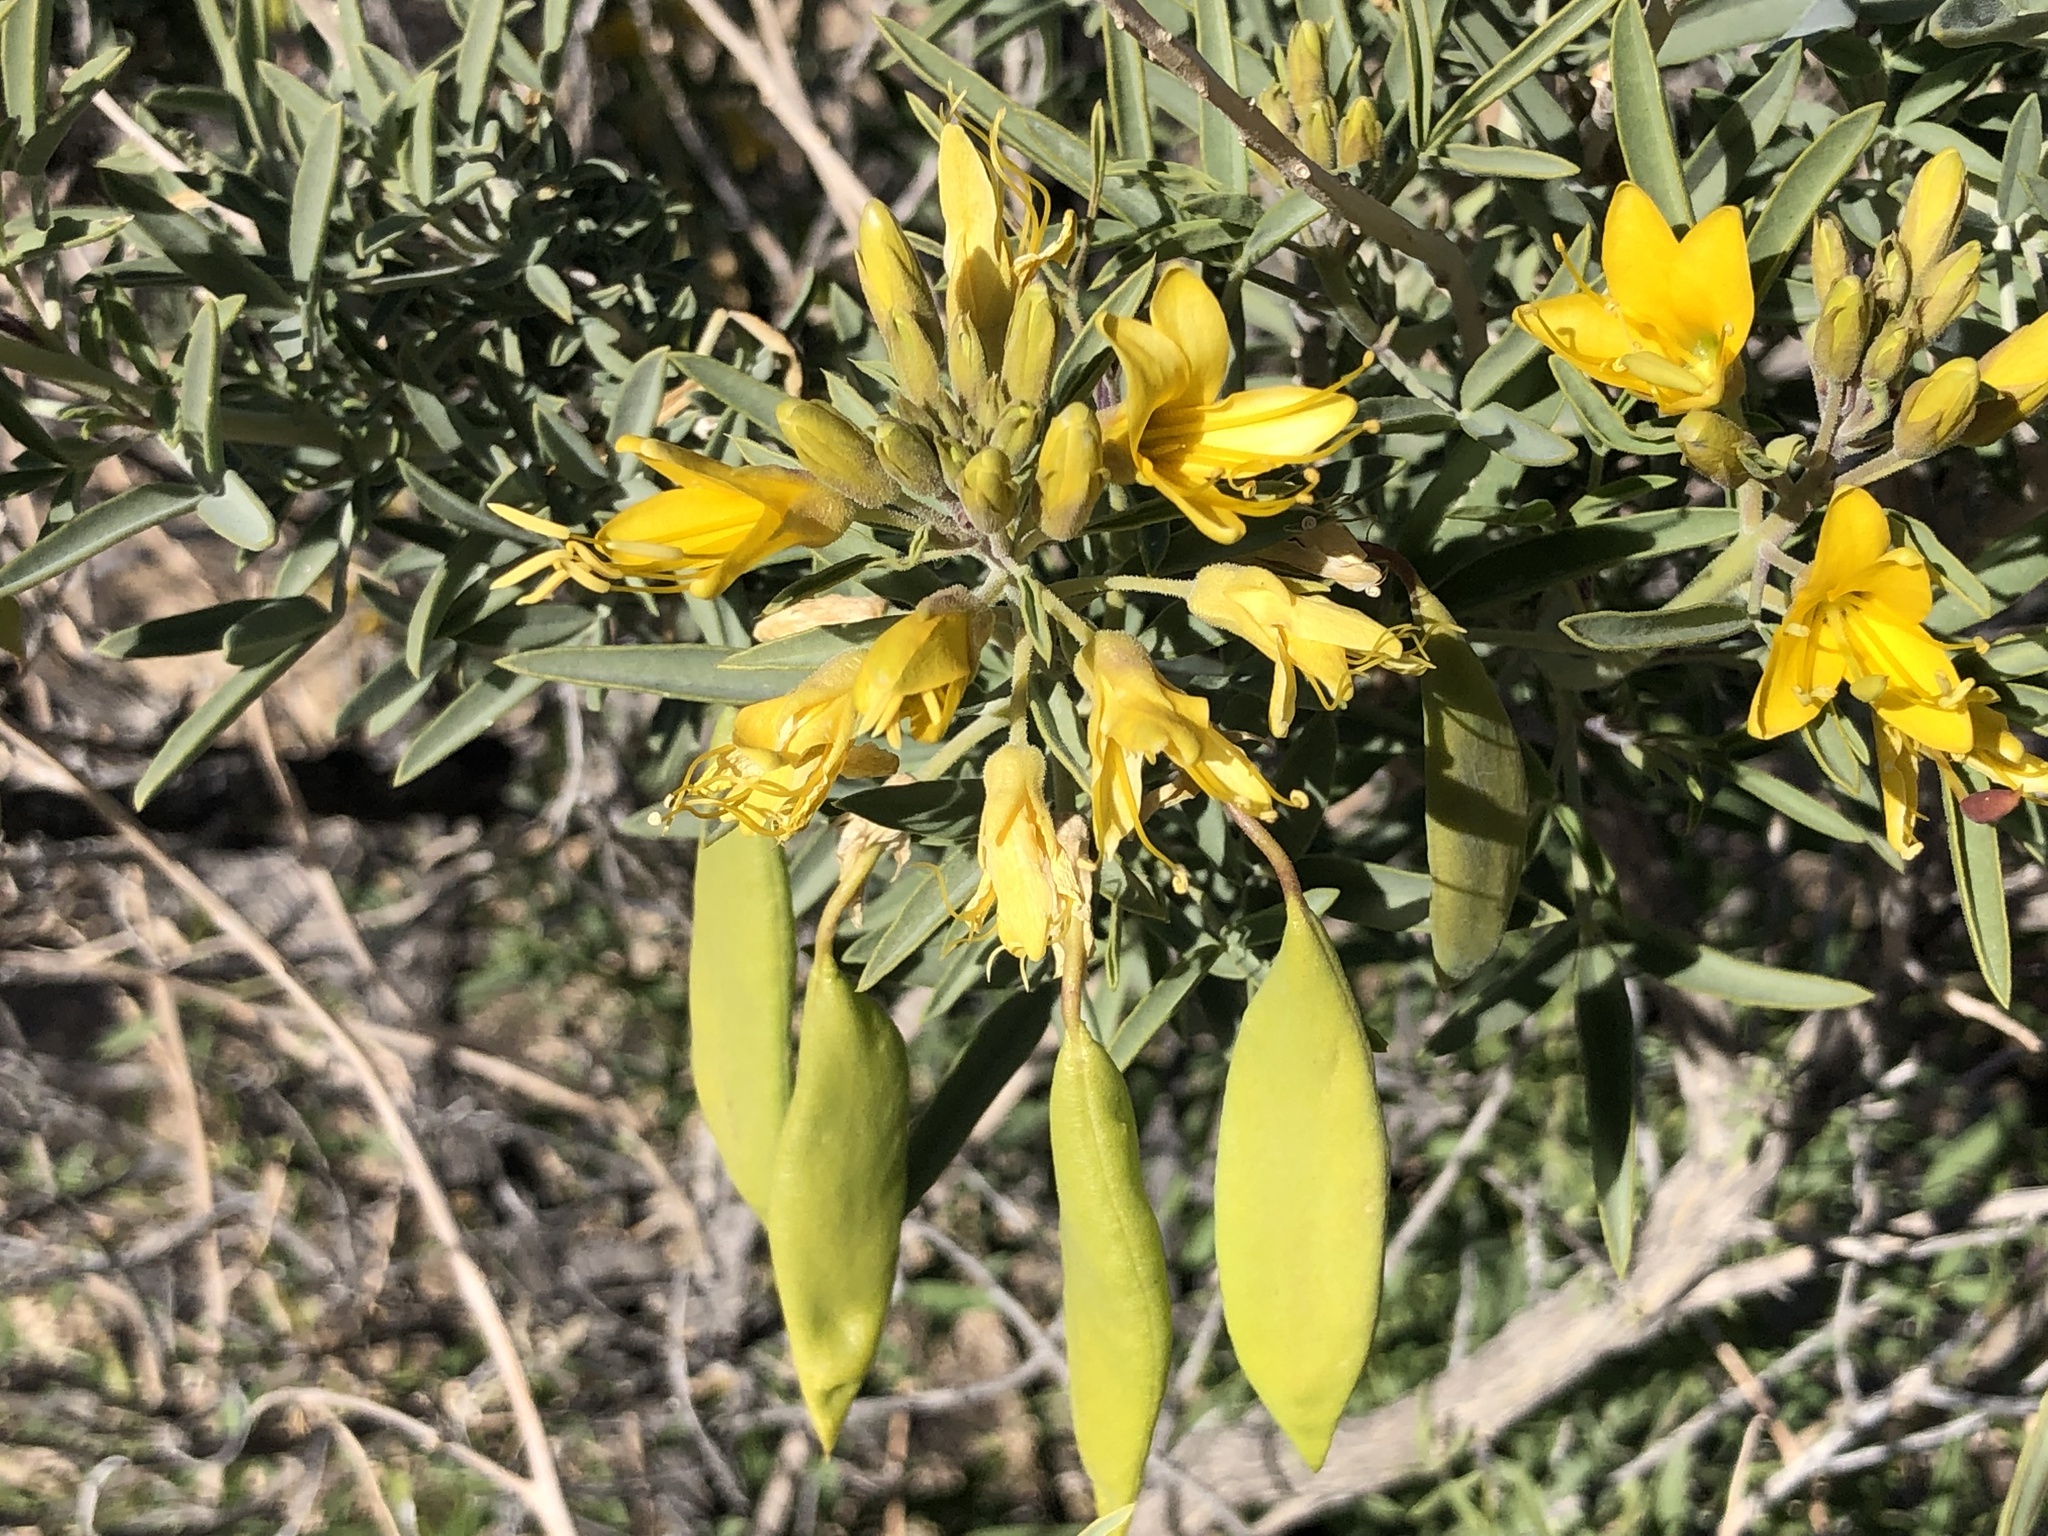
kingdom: Plantae
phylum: Tracheophyta
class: Magnoliopsida
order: Brassicales
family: Cleomaceae
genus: Cleomella
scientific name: Cleomella arborea
